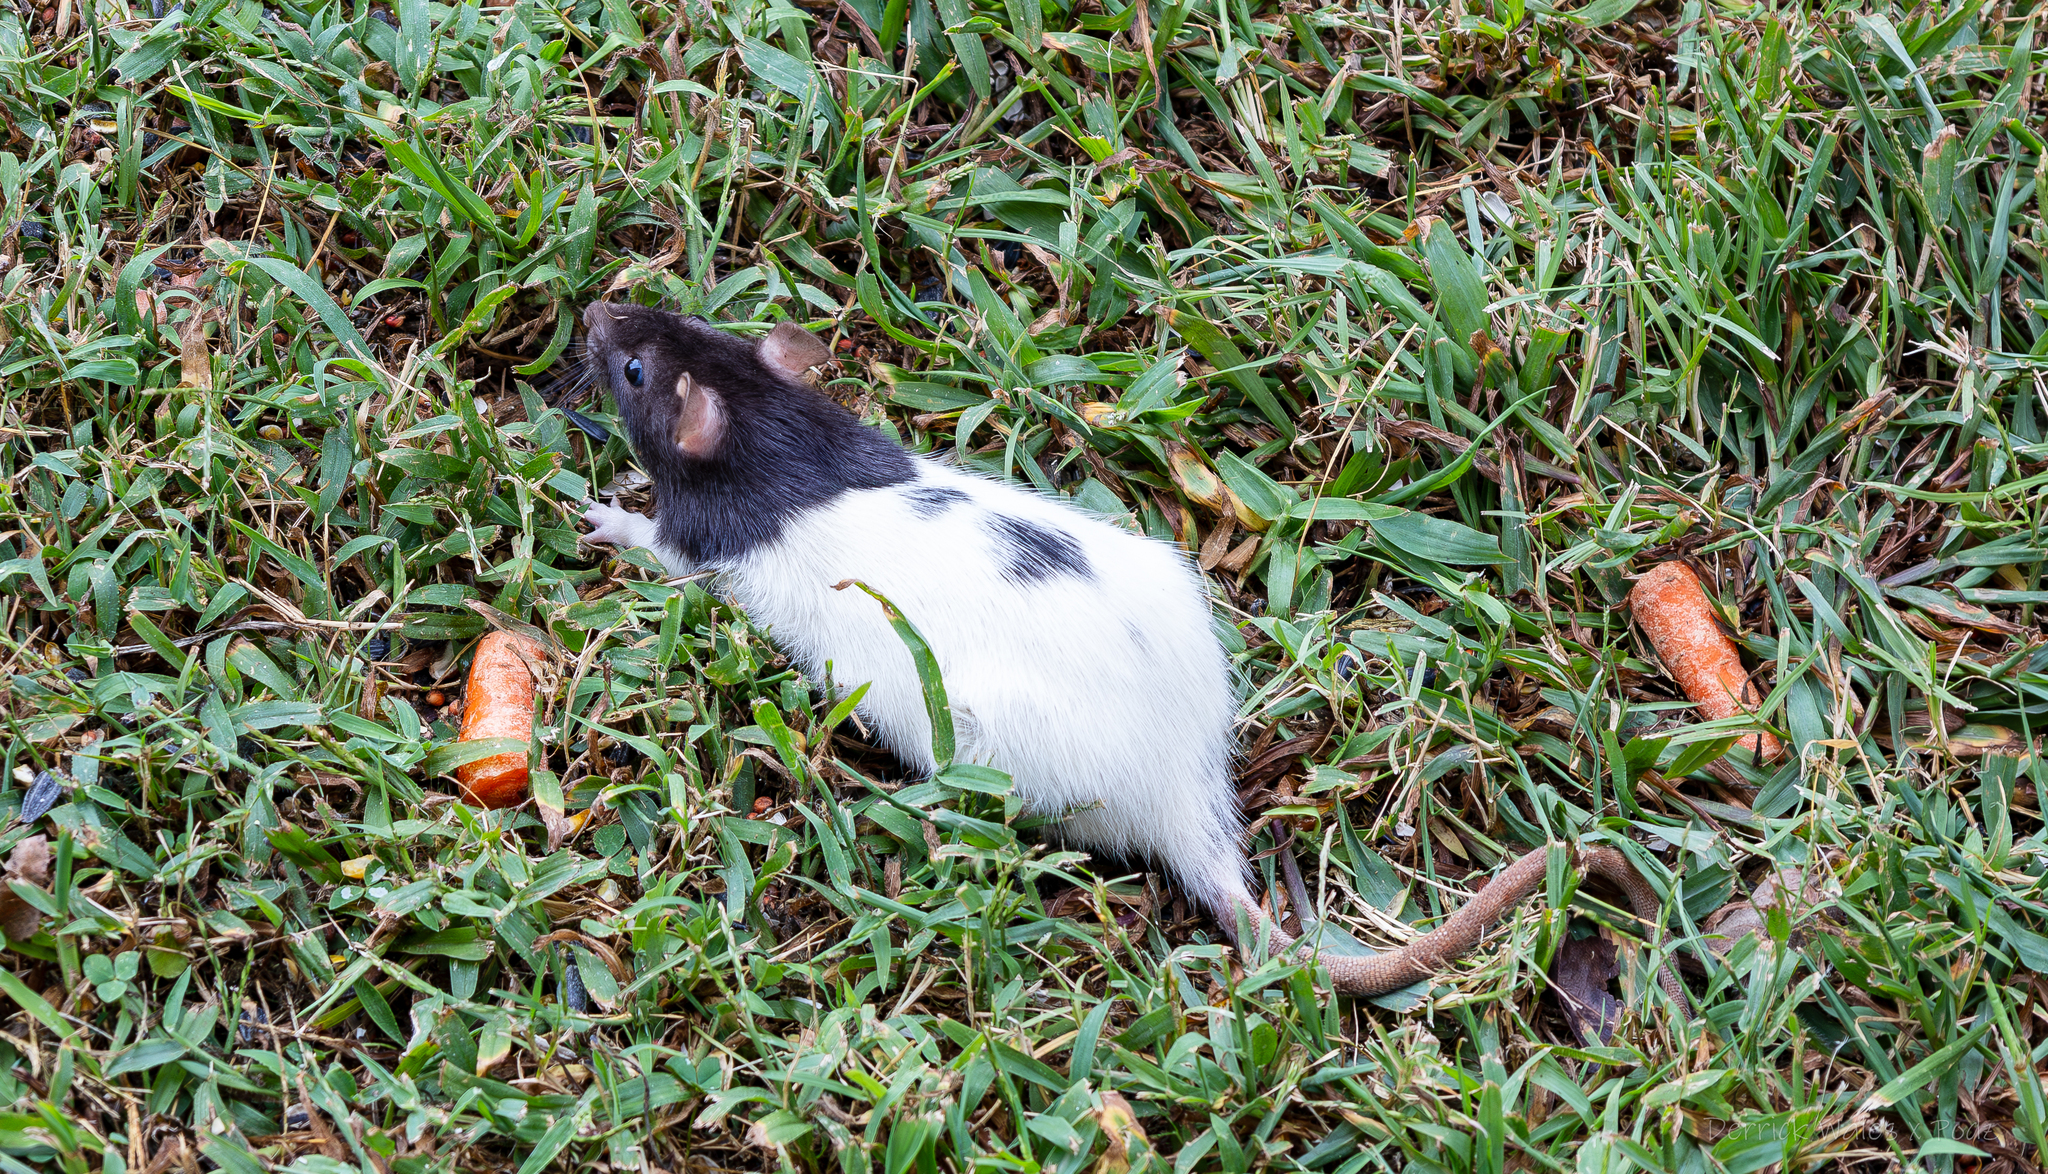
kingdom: Animalia
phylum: Chordata
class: Mammalia
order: Rodentia
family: Muridae
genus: Rattus
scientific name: Rattus norvegicus
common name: Brown rat
